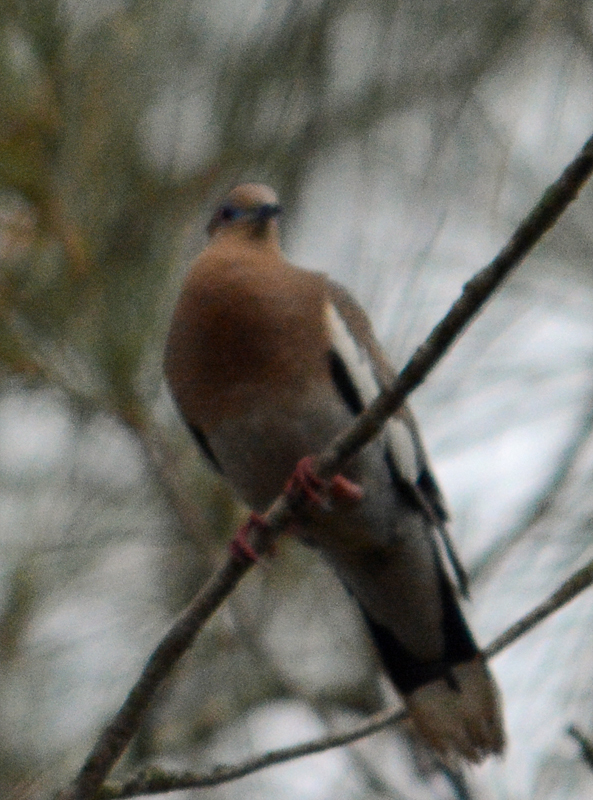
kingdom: Animalia
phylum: Chordata
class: Aves
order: Columbiformes
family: Columbidae
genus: Zenaida
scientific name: Zenaida asiatica
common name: White-winged dove
